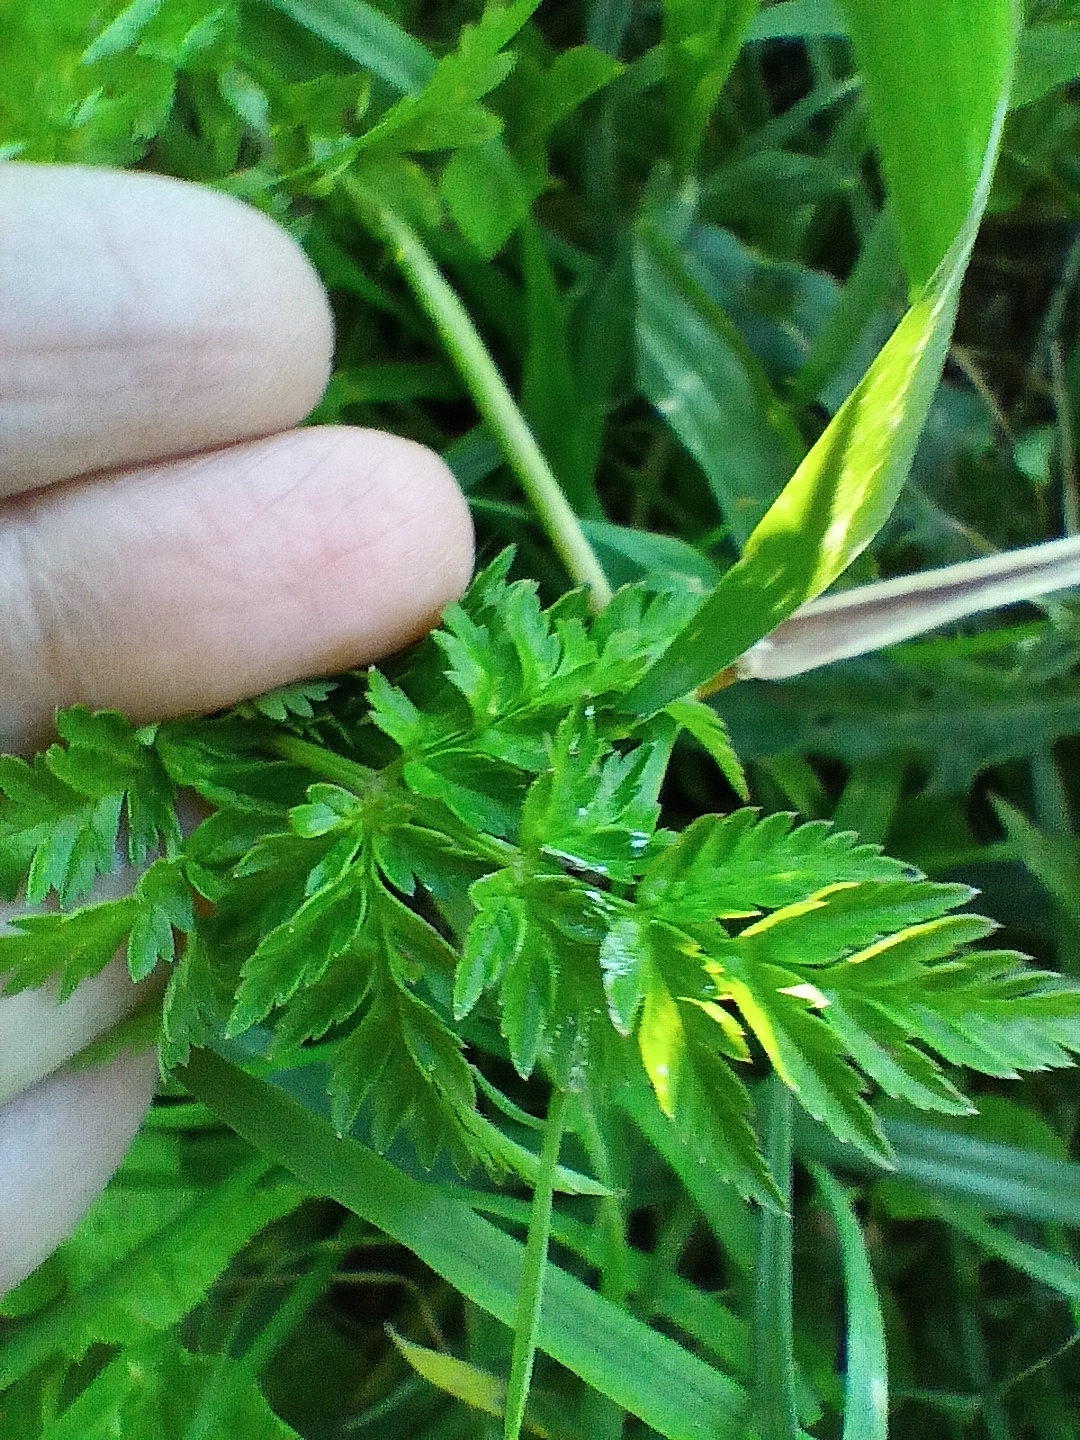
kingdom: Plantae
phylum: Tracheophyta
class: Magnoliopsida
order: Apiales
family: Apiaceae
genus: Anthriscus
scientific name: Anthriscus sylvestris
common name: Cow parsley
